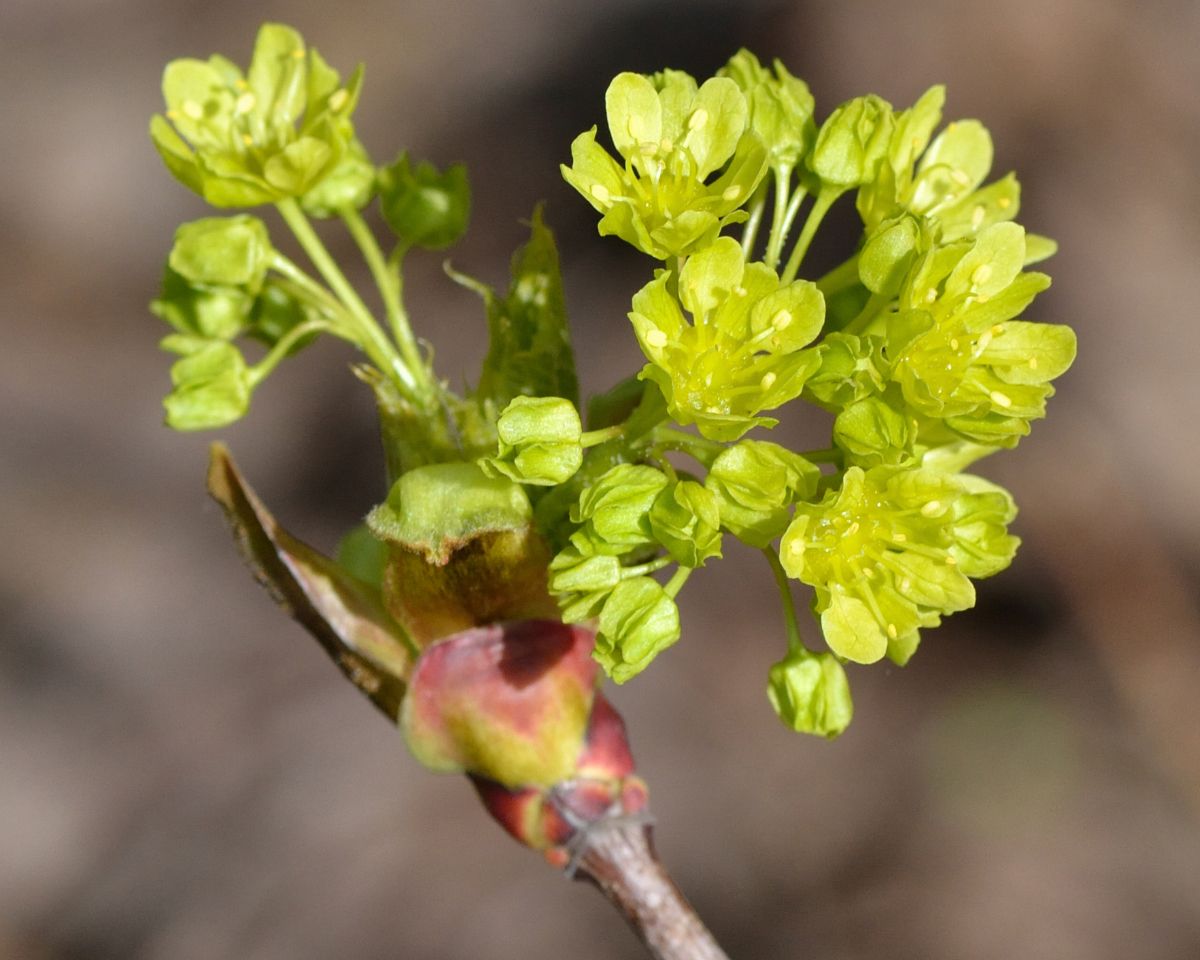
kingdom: Plantae
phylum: Tracheophyta
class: Magnoliopsida
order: Sapindales
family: Sapindaceae
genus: Acer
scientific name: Acer platanoides
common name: Norway maple
